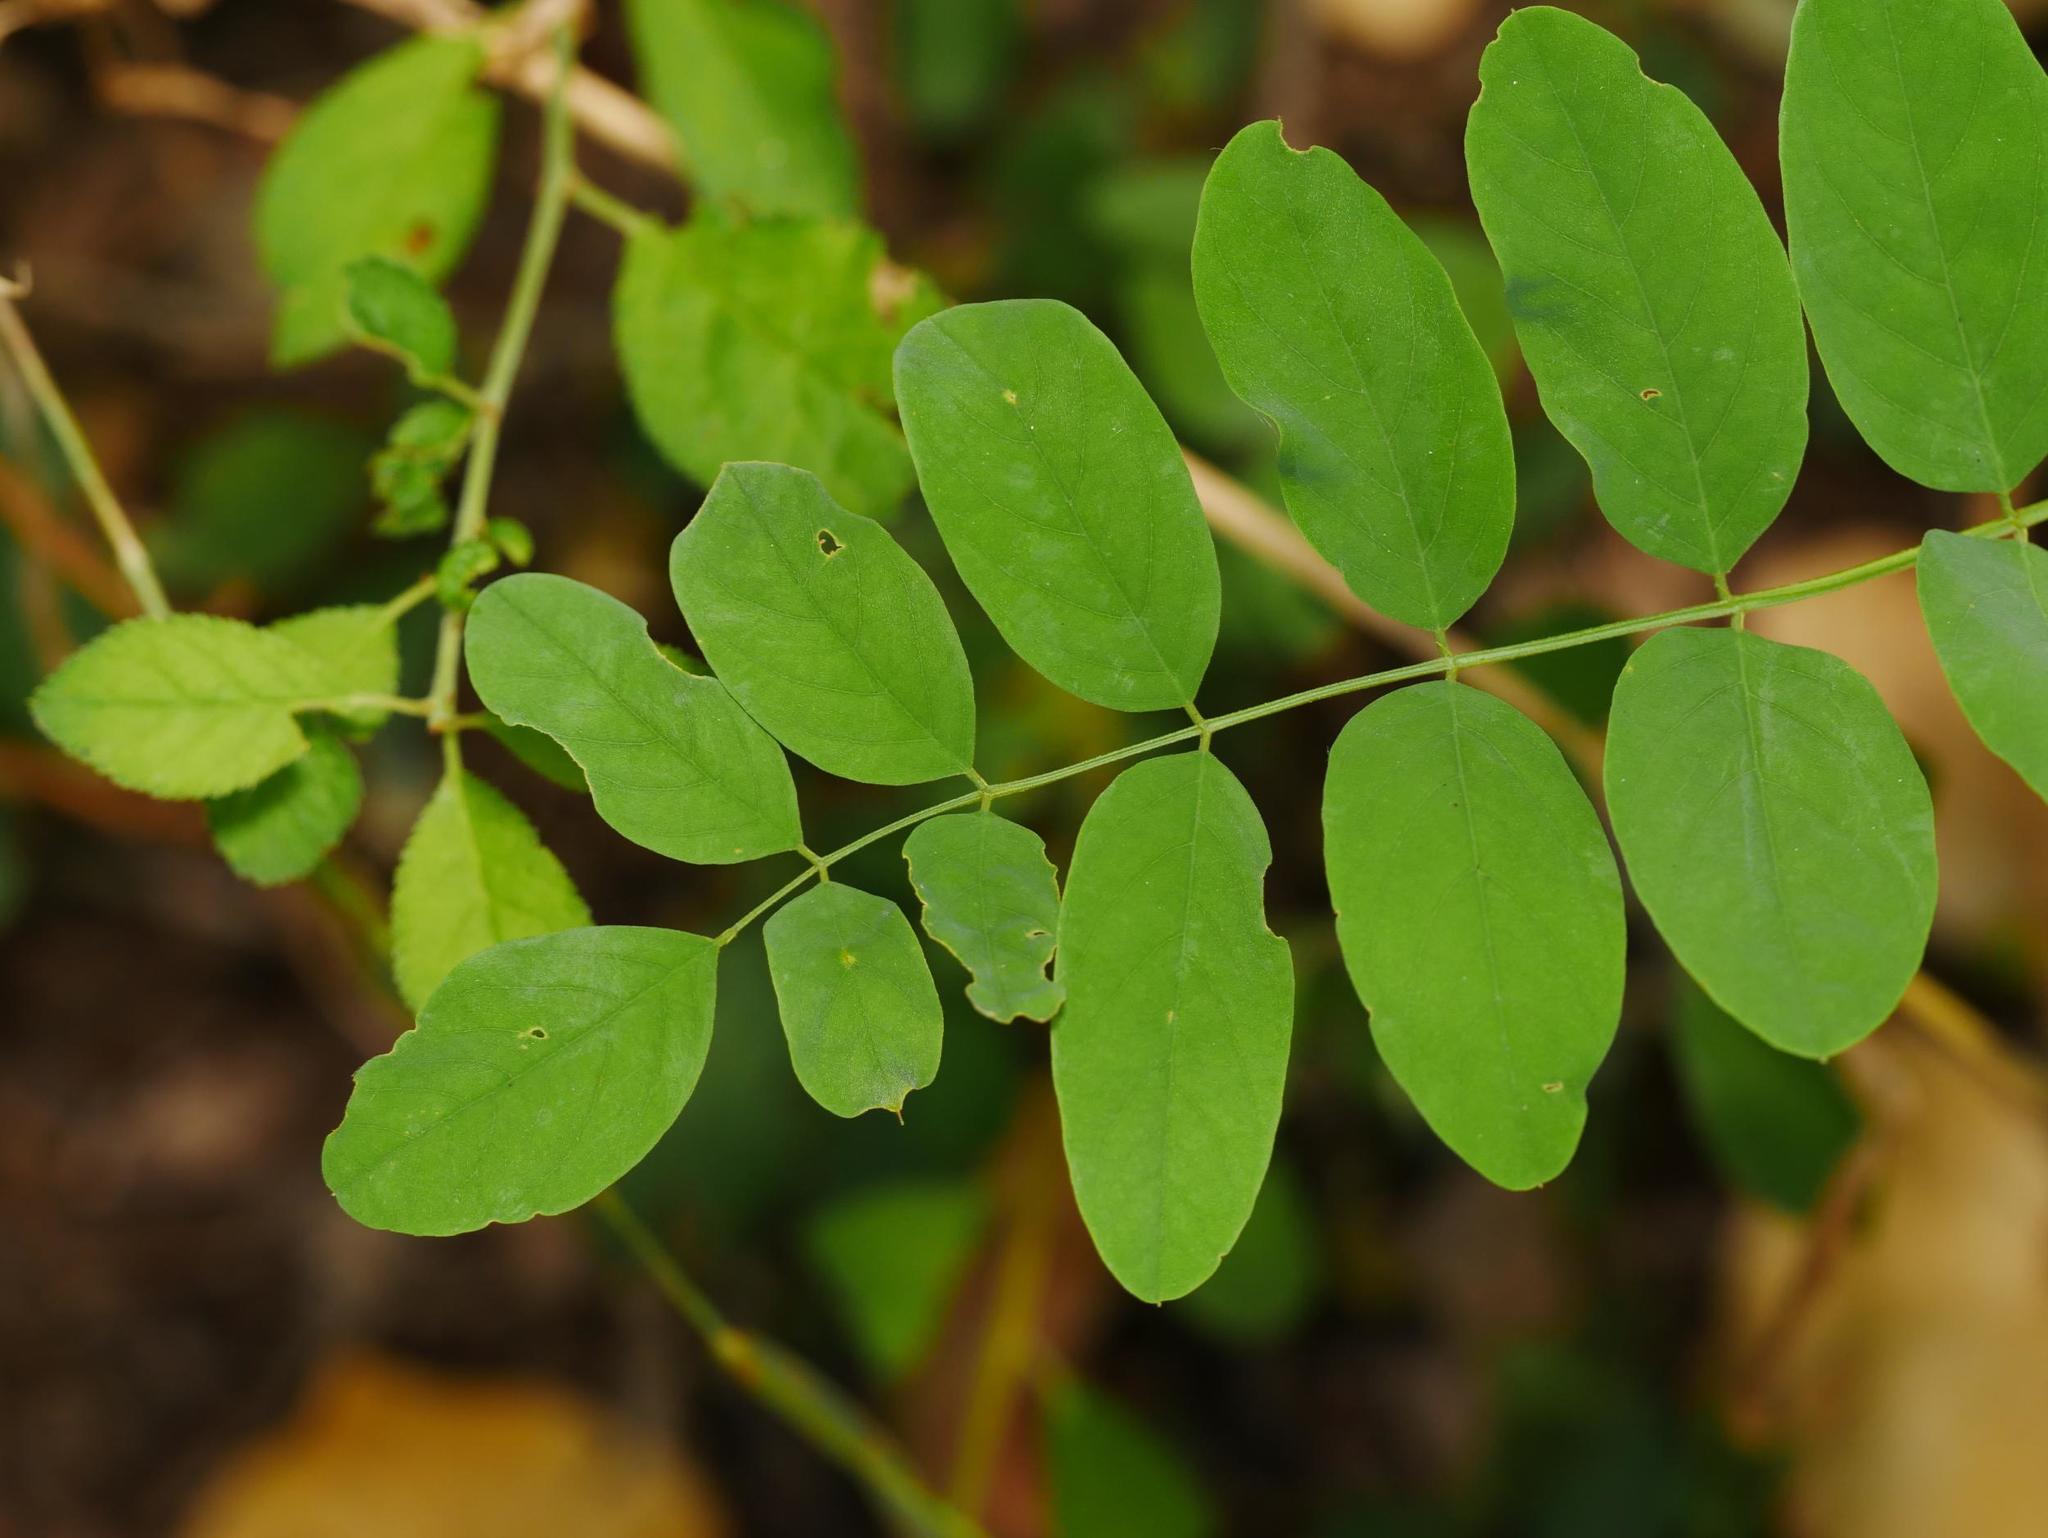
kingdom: Plantae
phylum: Tracheophyta
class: Magnoliopsida
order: Fabales
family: Fabaceae
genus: Robinia
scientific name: Robinia pseudoacacia
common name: Black locust
